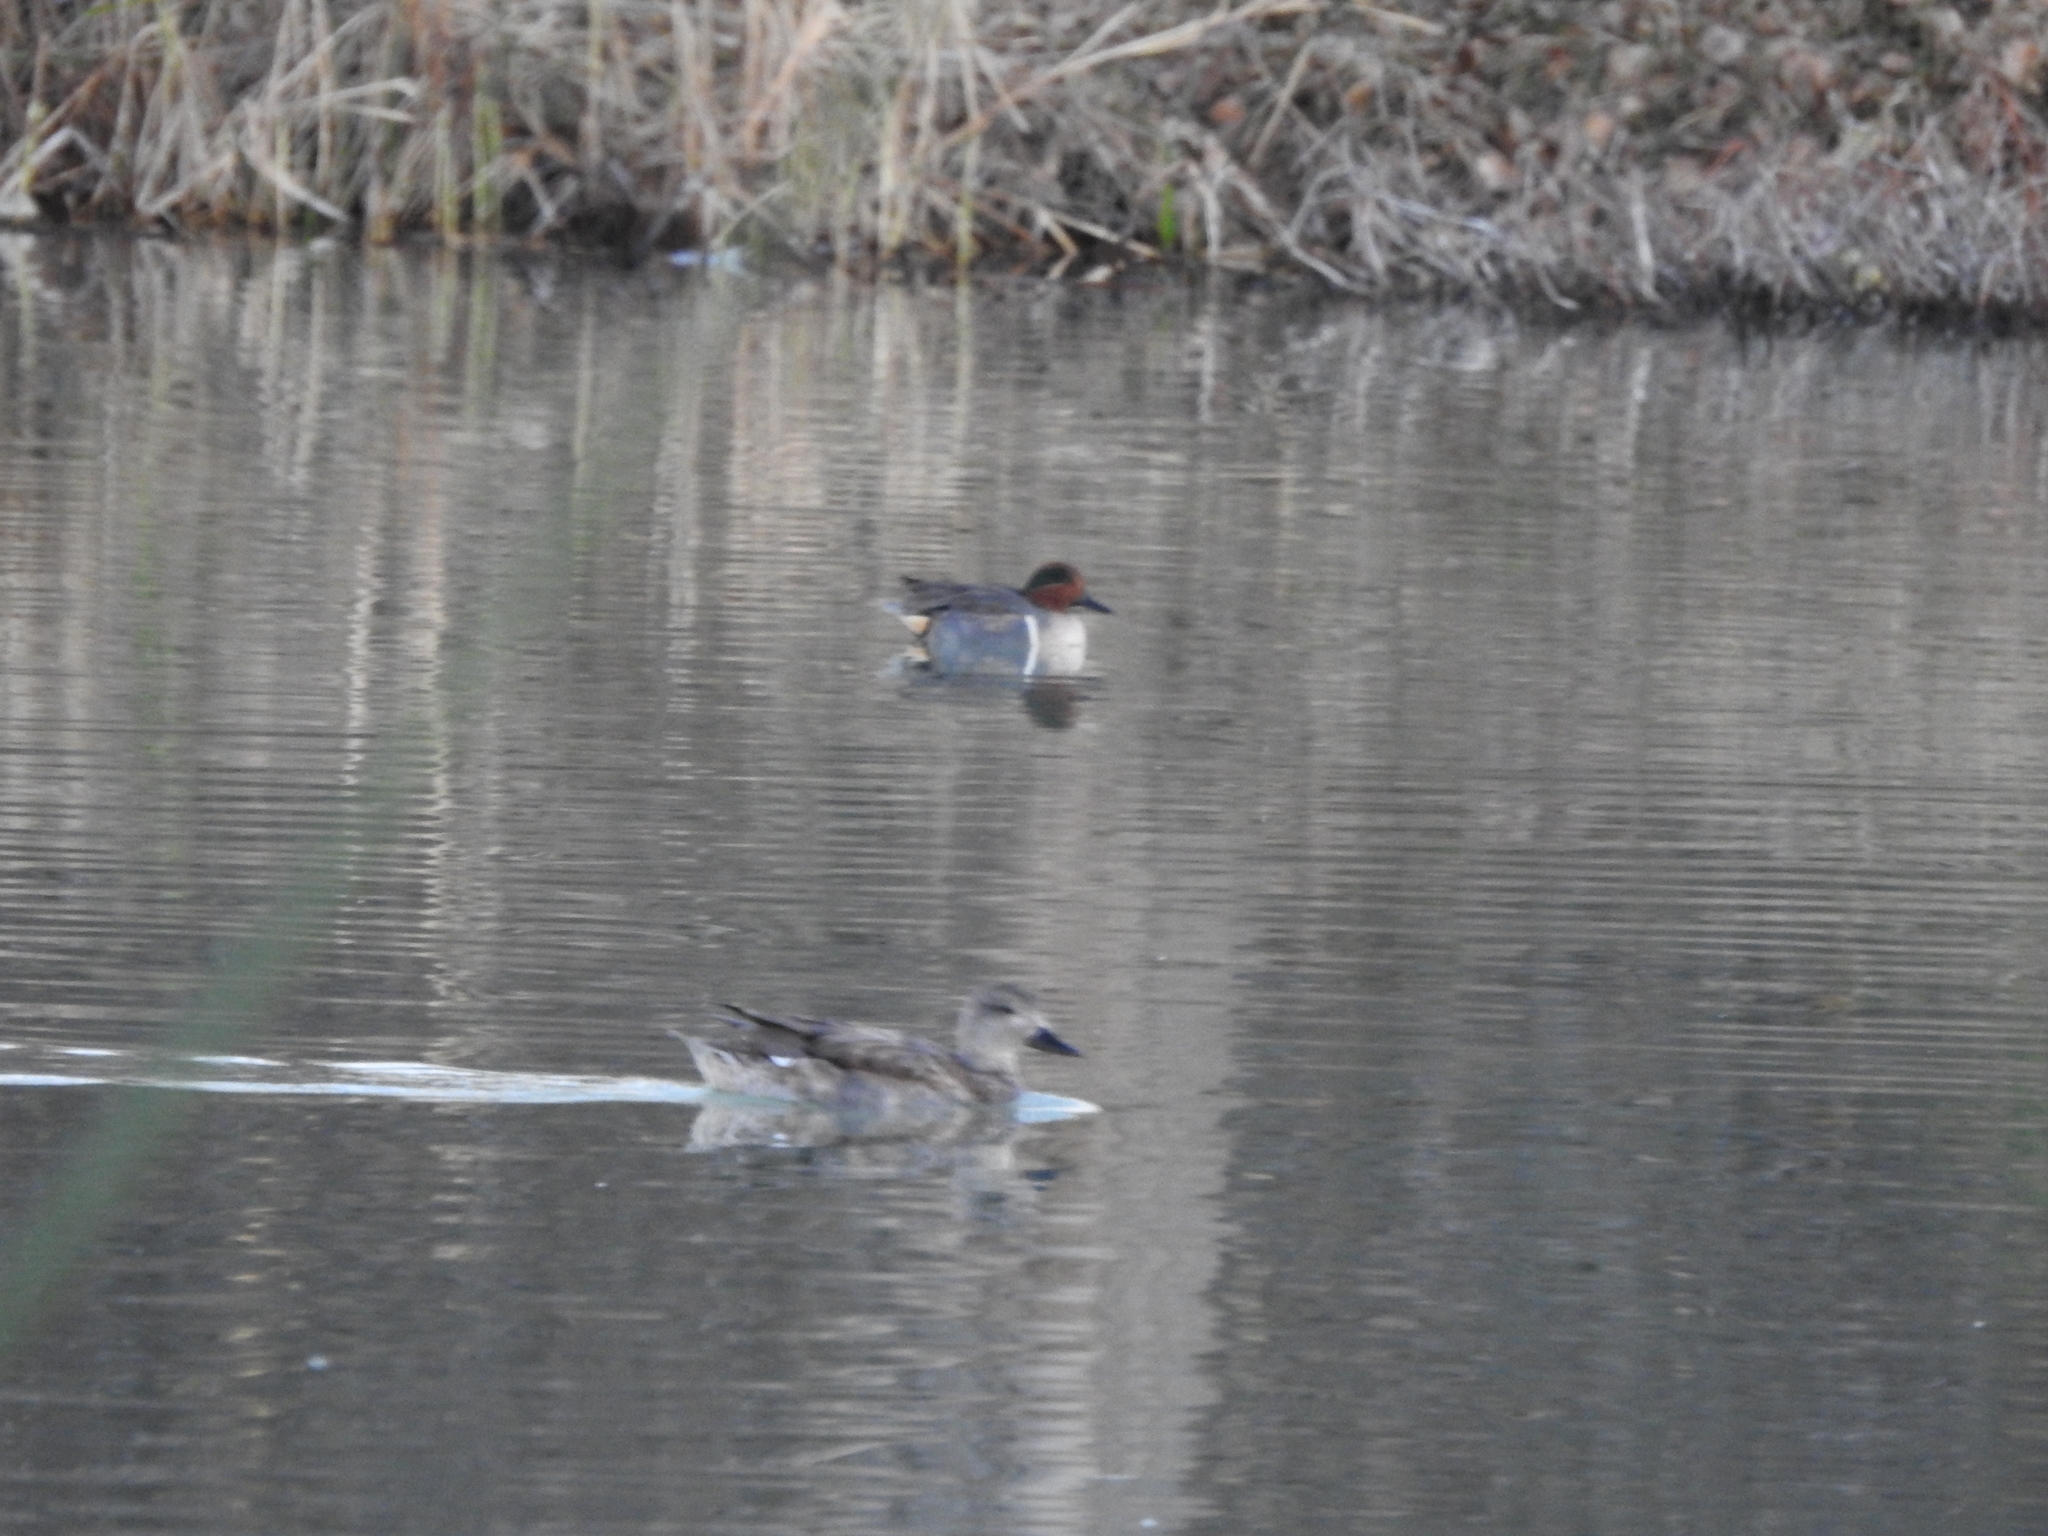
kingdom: Animalia
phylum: Chordata
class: Aves
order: Anseriformes
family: Anatidae
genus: Anas
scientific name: Anas crecca
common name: Eurasian teal
